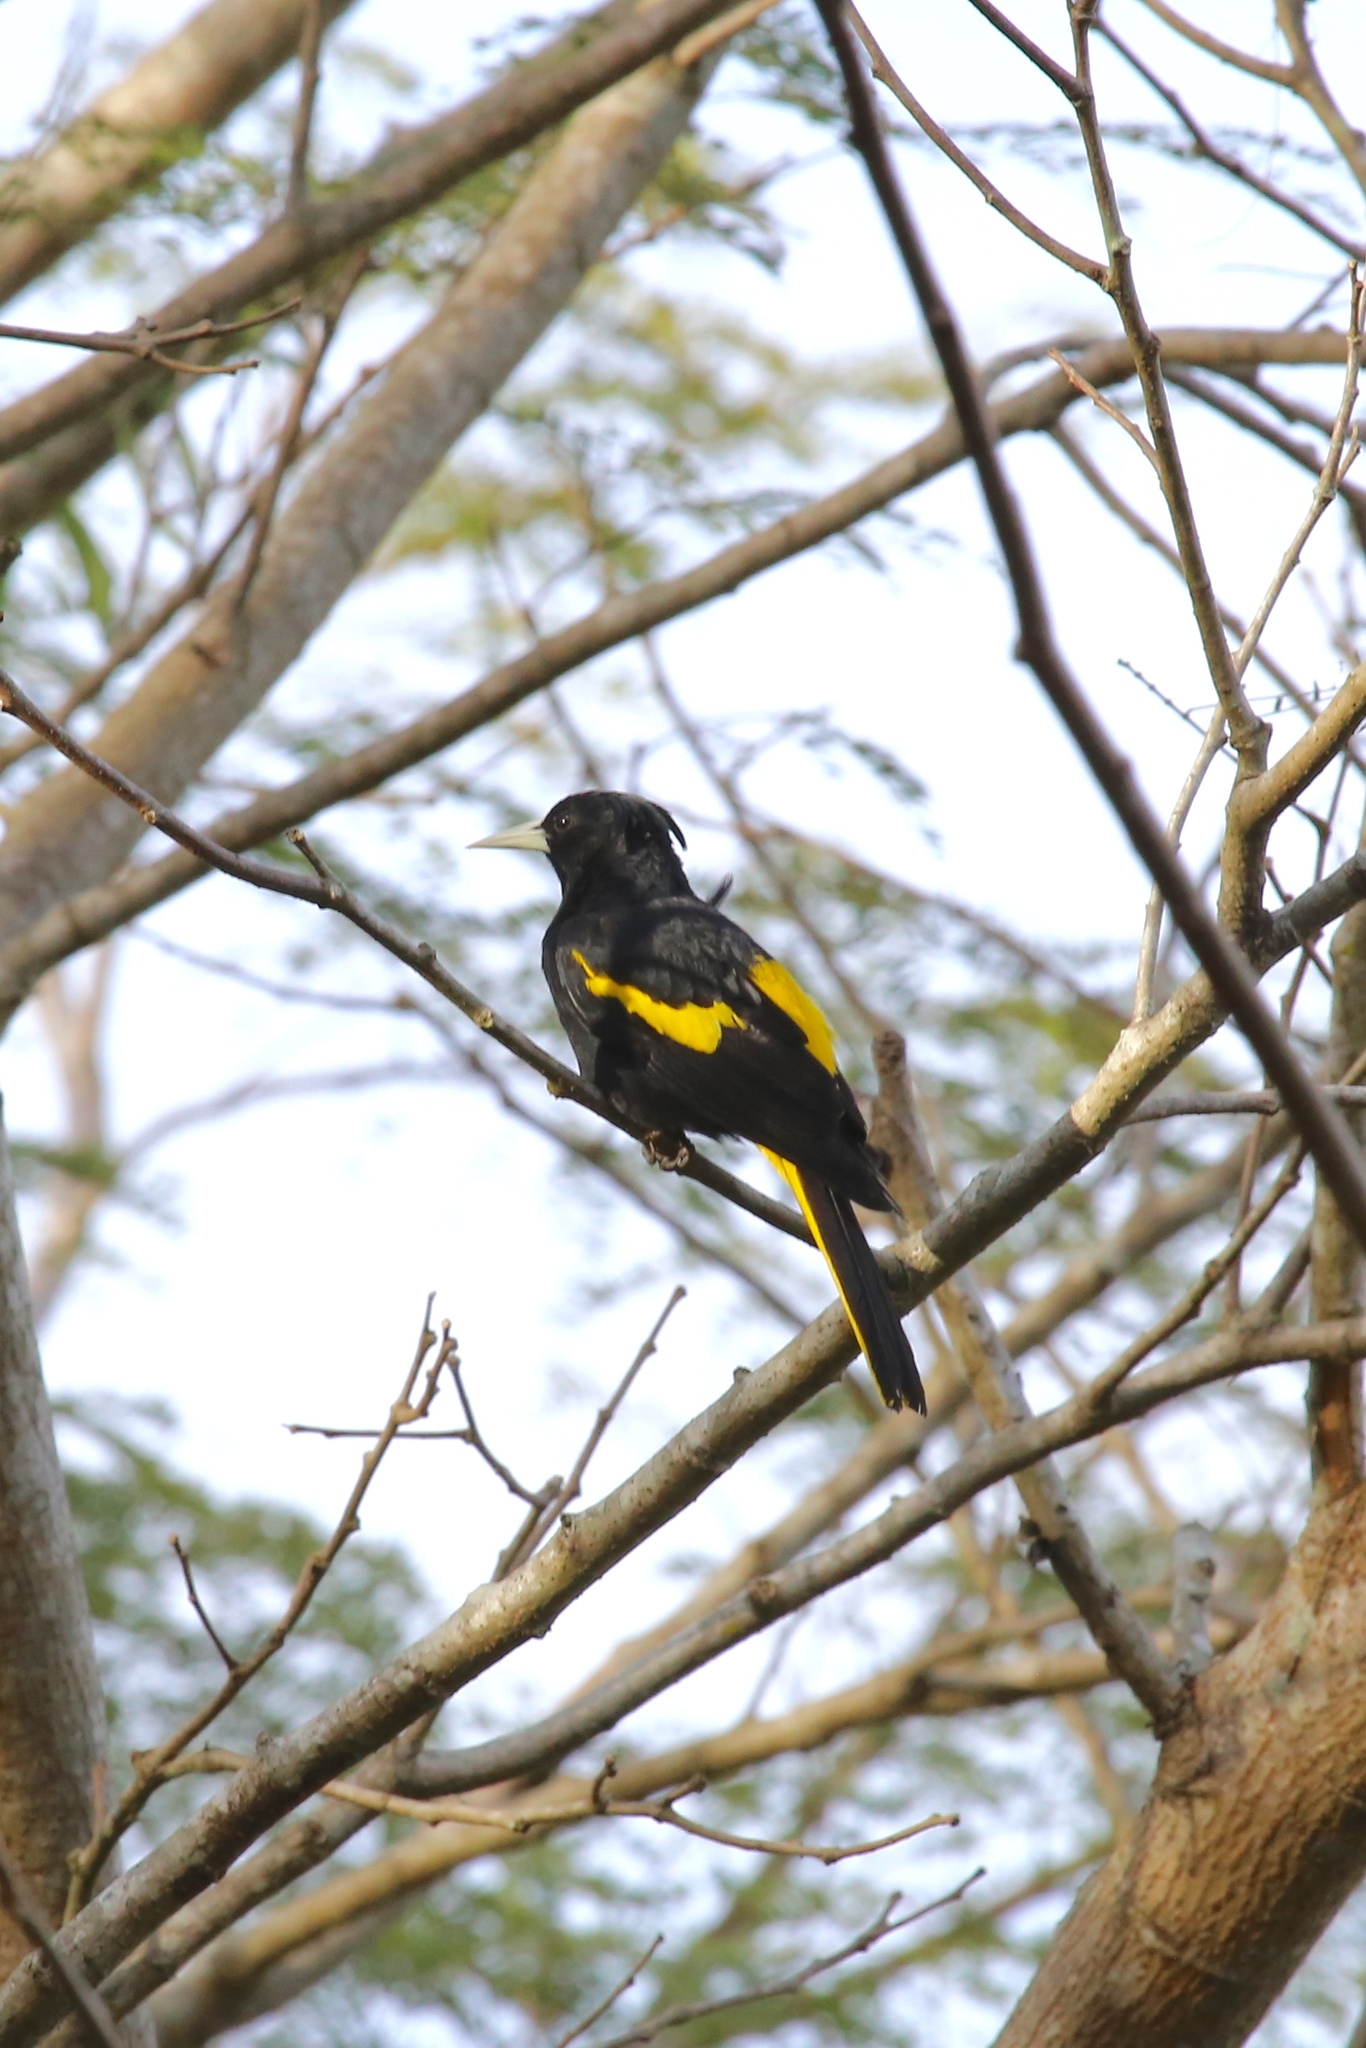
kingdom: Animalia
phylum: Chordata
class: Aves
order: Passeriformes
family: Icteridae
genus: Cacicus
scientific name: Cacicus melanicterus
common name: Yellow-winged cacique
